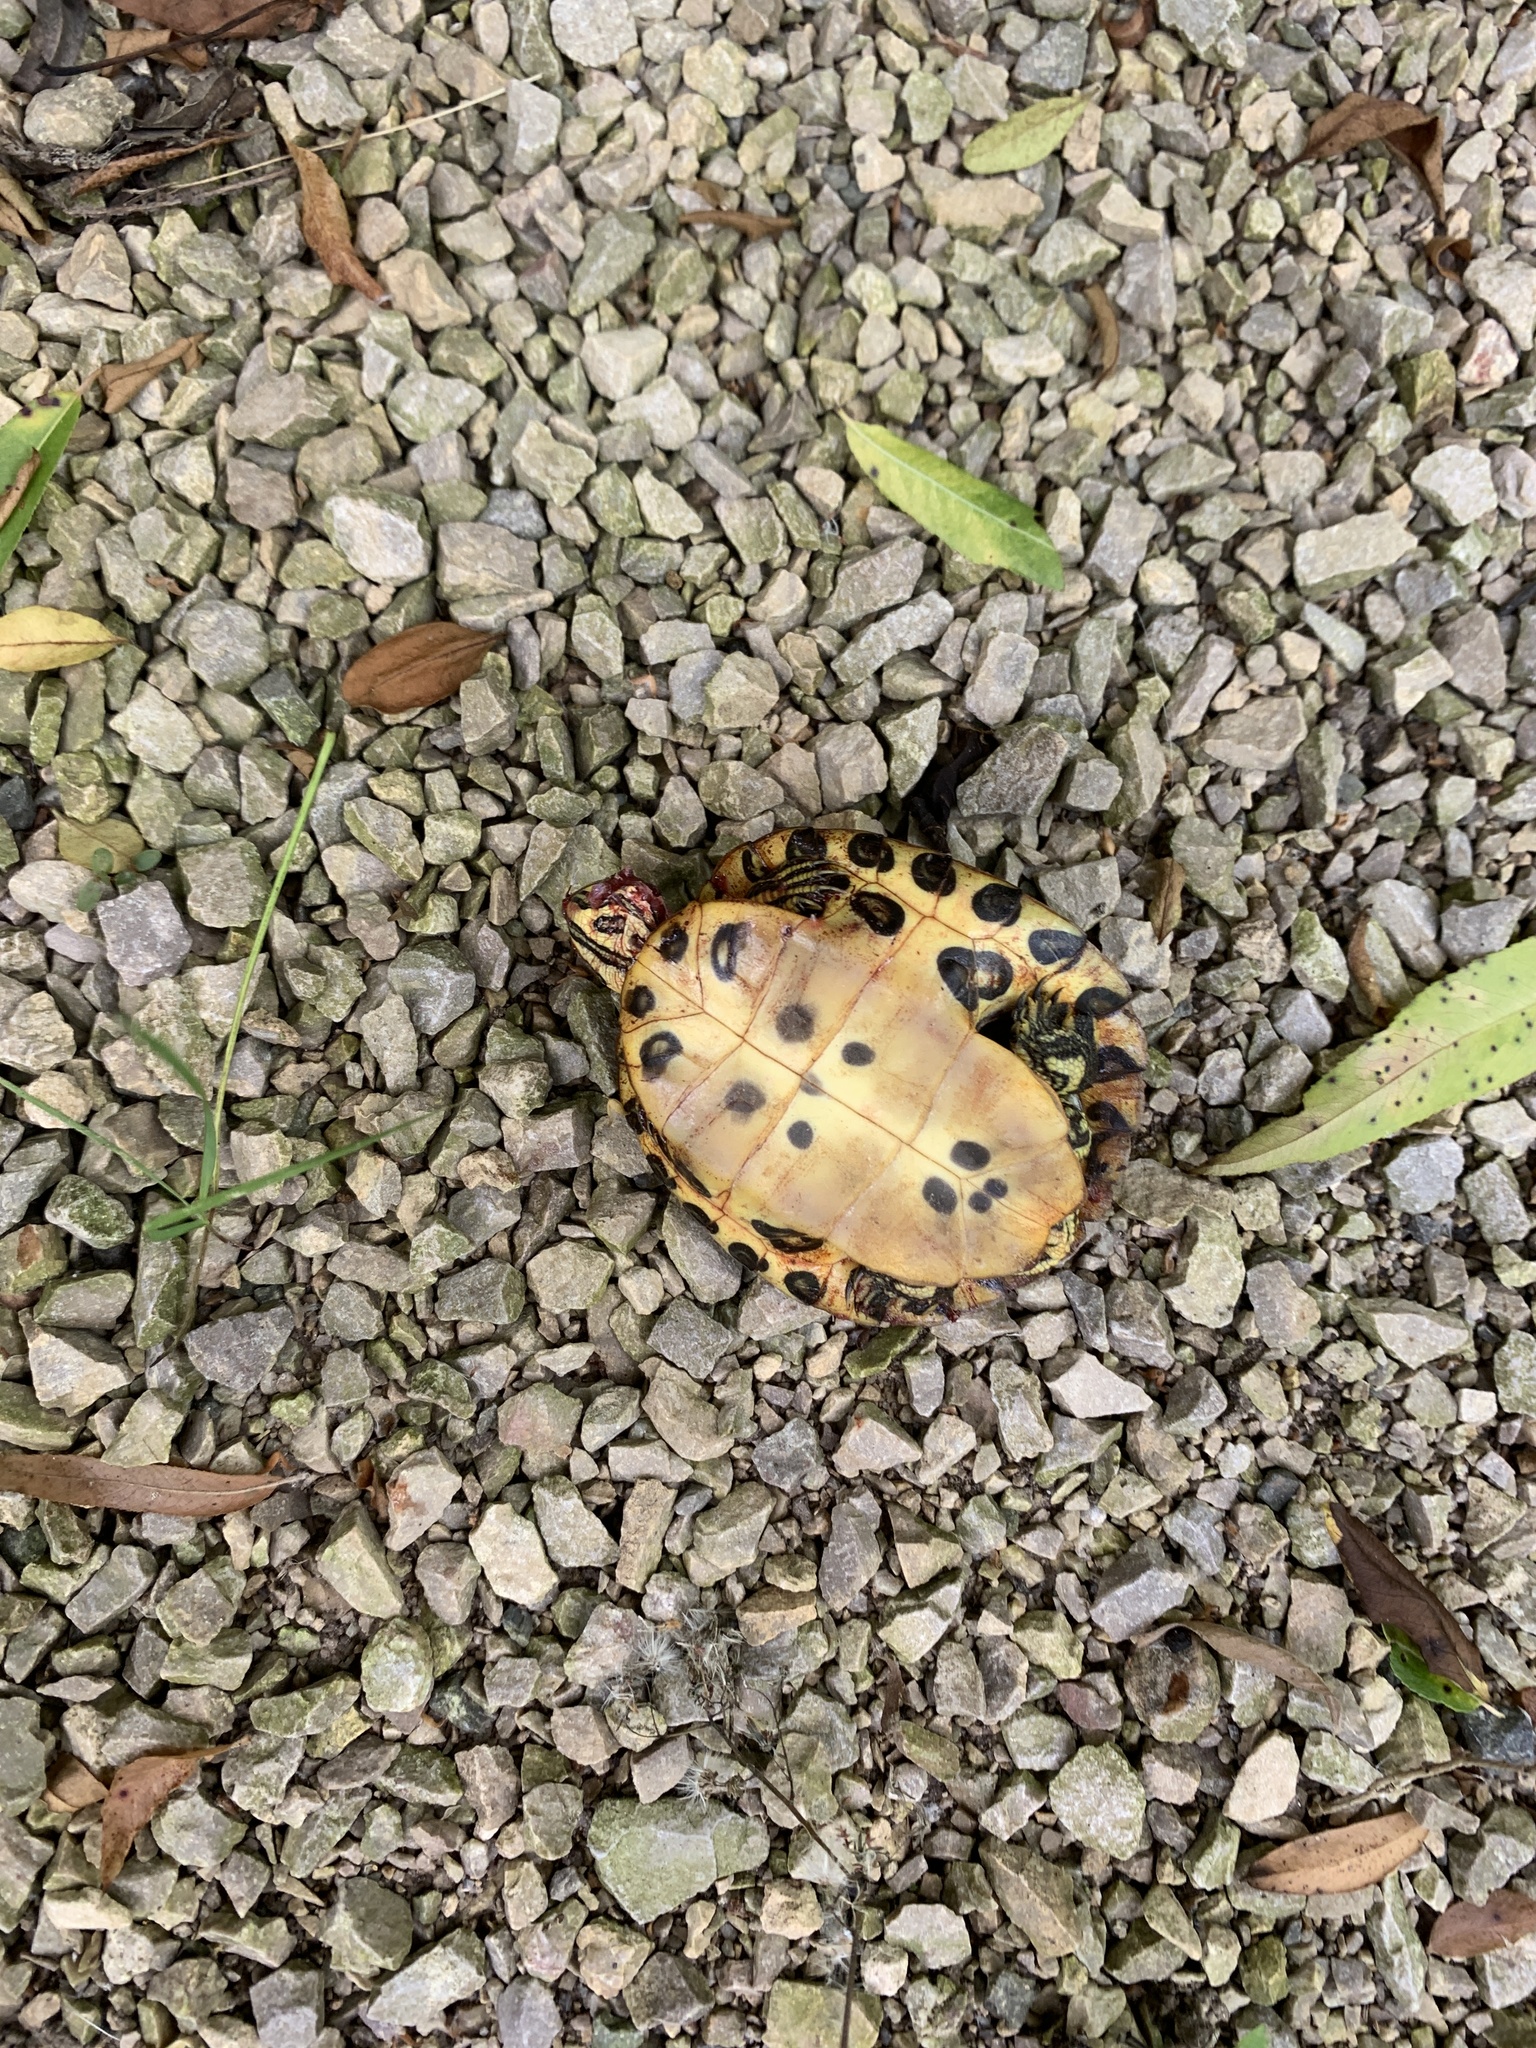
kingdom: Animalia
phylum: Chordata
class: Testudines
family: Emydidae
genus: Trachemys
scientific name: Trachemys scripta
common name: Slider
